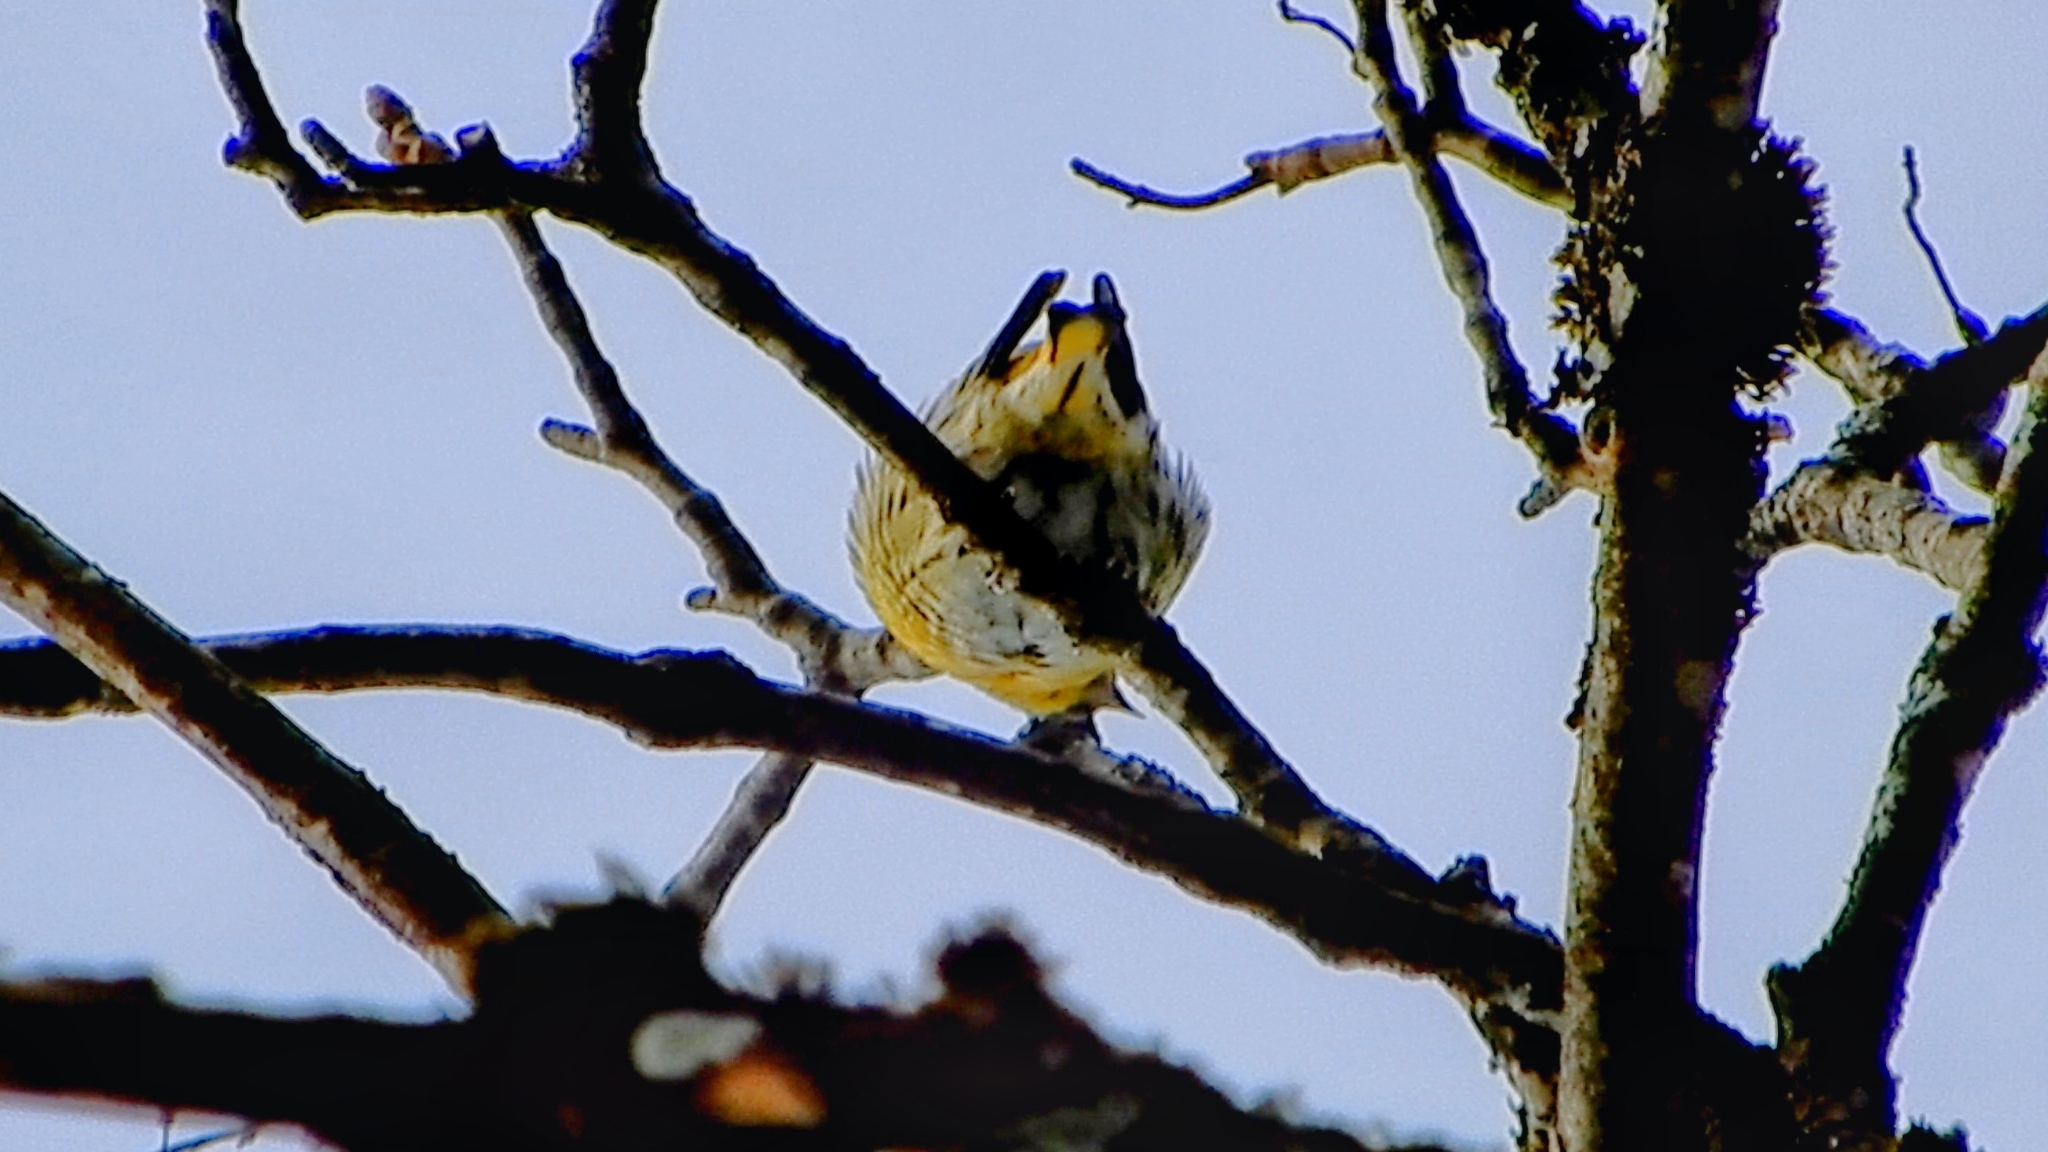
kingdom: Animalia
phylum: Chordata
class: Aves
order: Passeriformes
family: Fringillidae
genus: Spinus
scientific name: Spinus spinus
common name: Eurasian siskin
